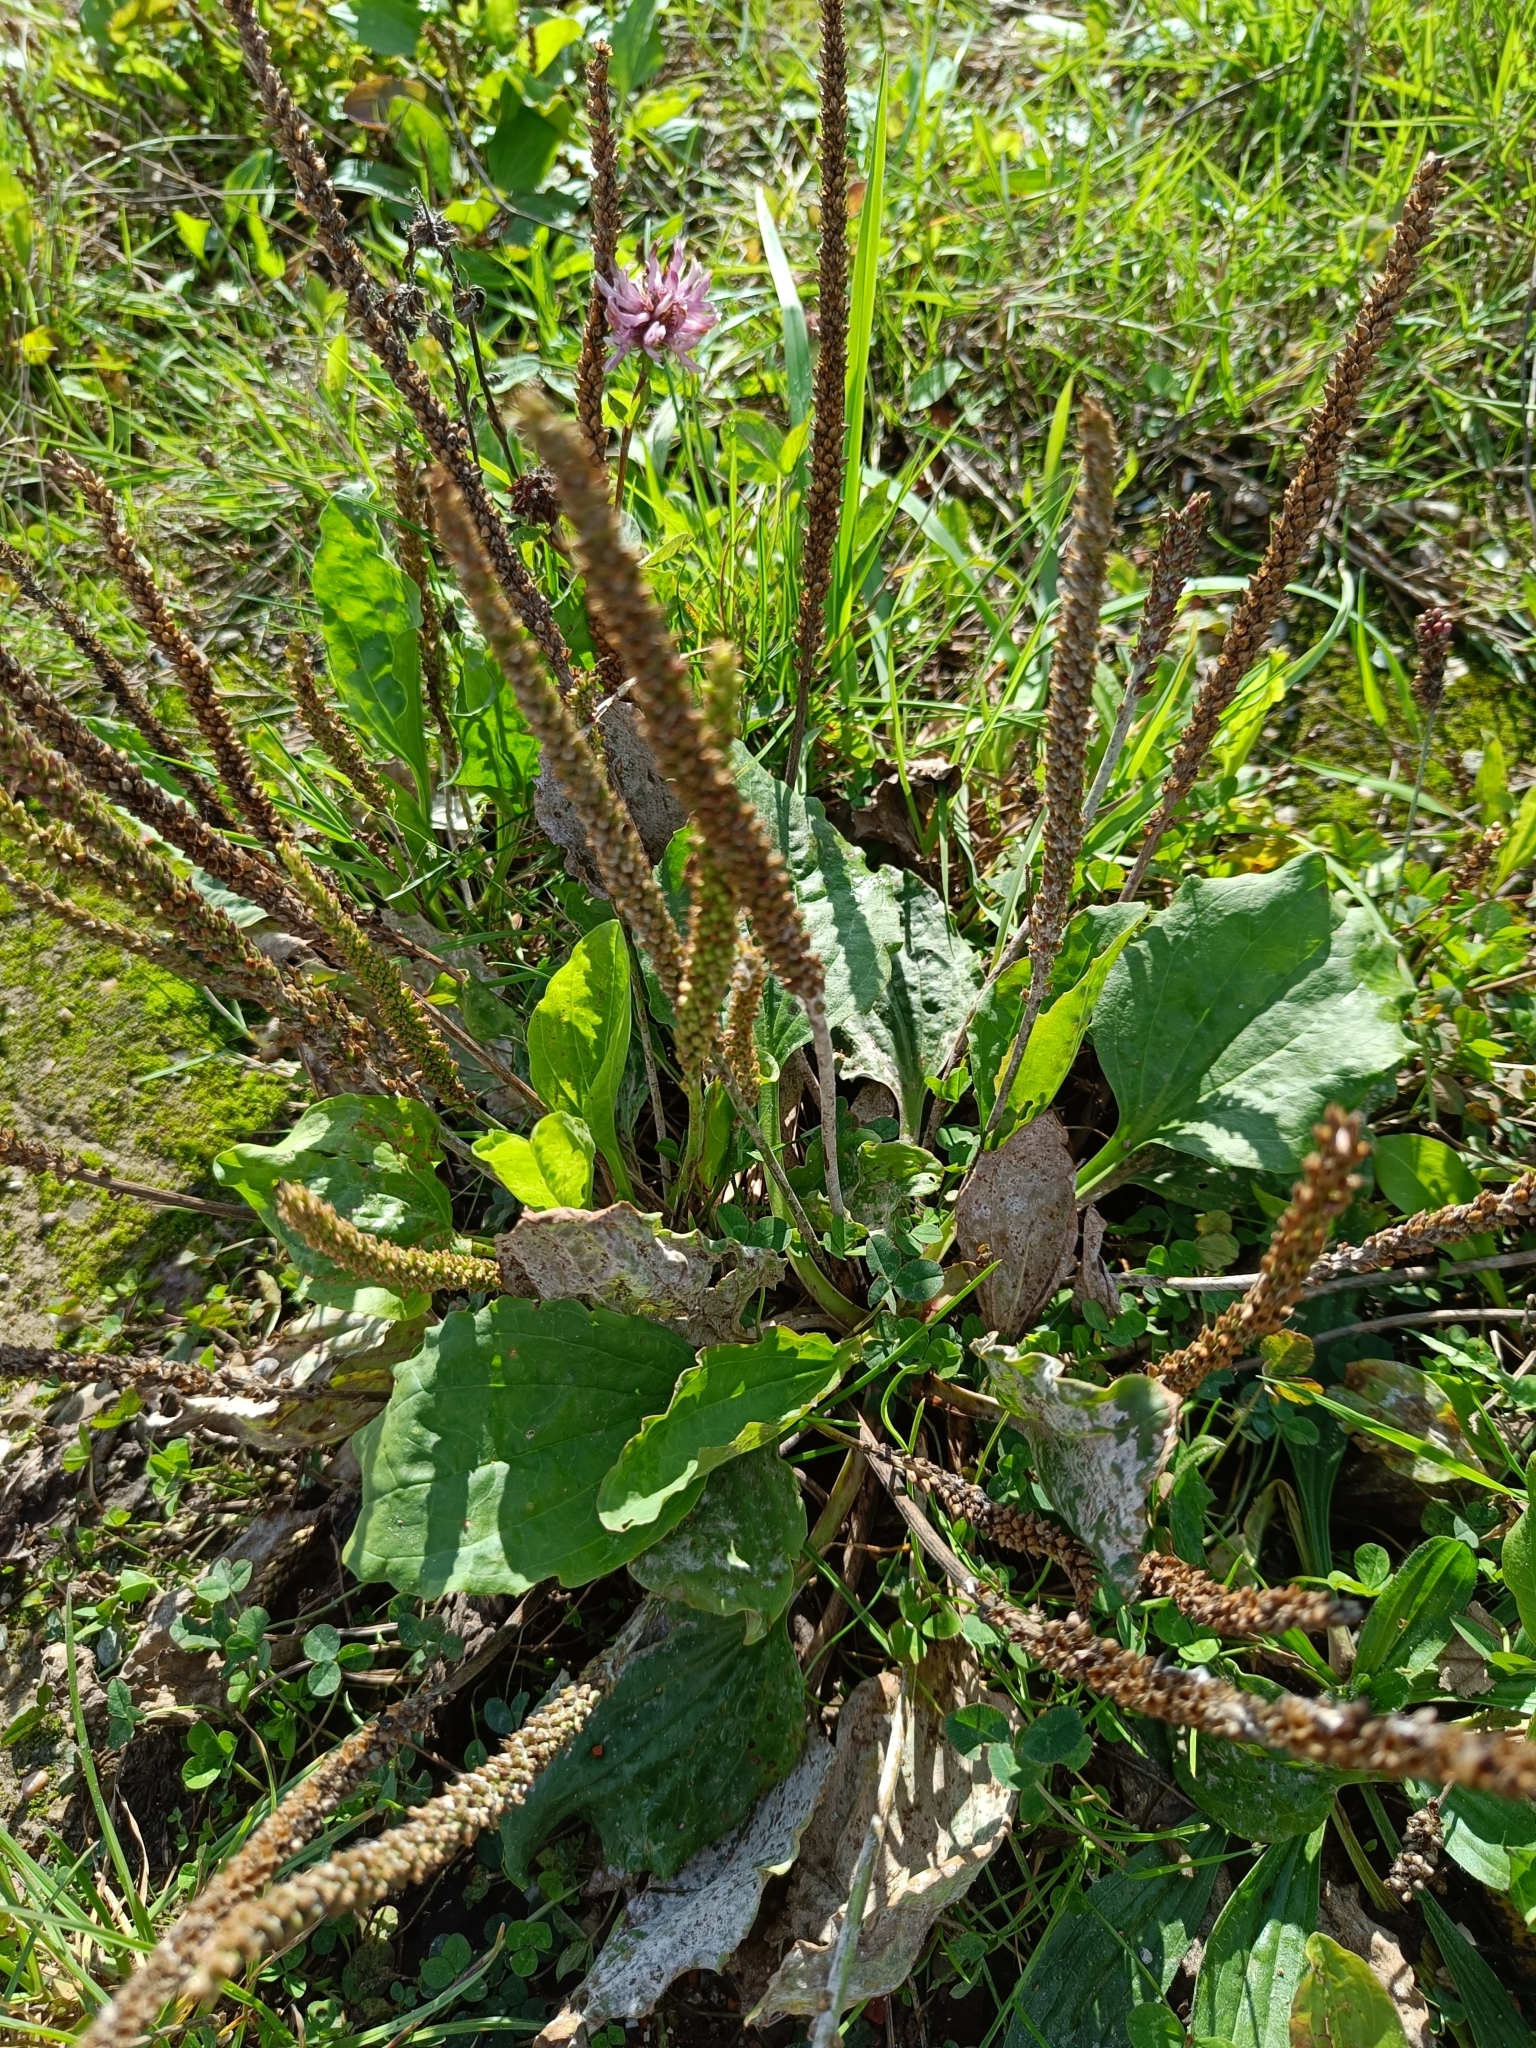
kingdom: Plantae
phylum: Tracheophyta
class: Magnoliopsida
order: Lamiales
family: Plantaginaceae
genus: Plantago
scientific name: Plantago major
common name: Common plantain
